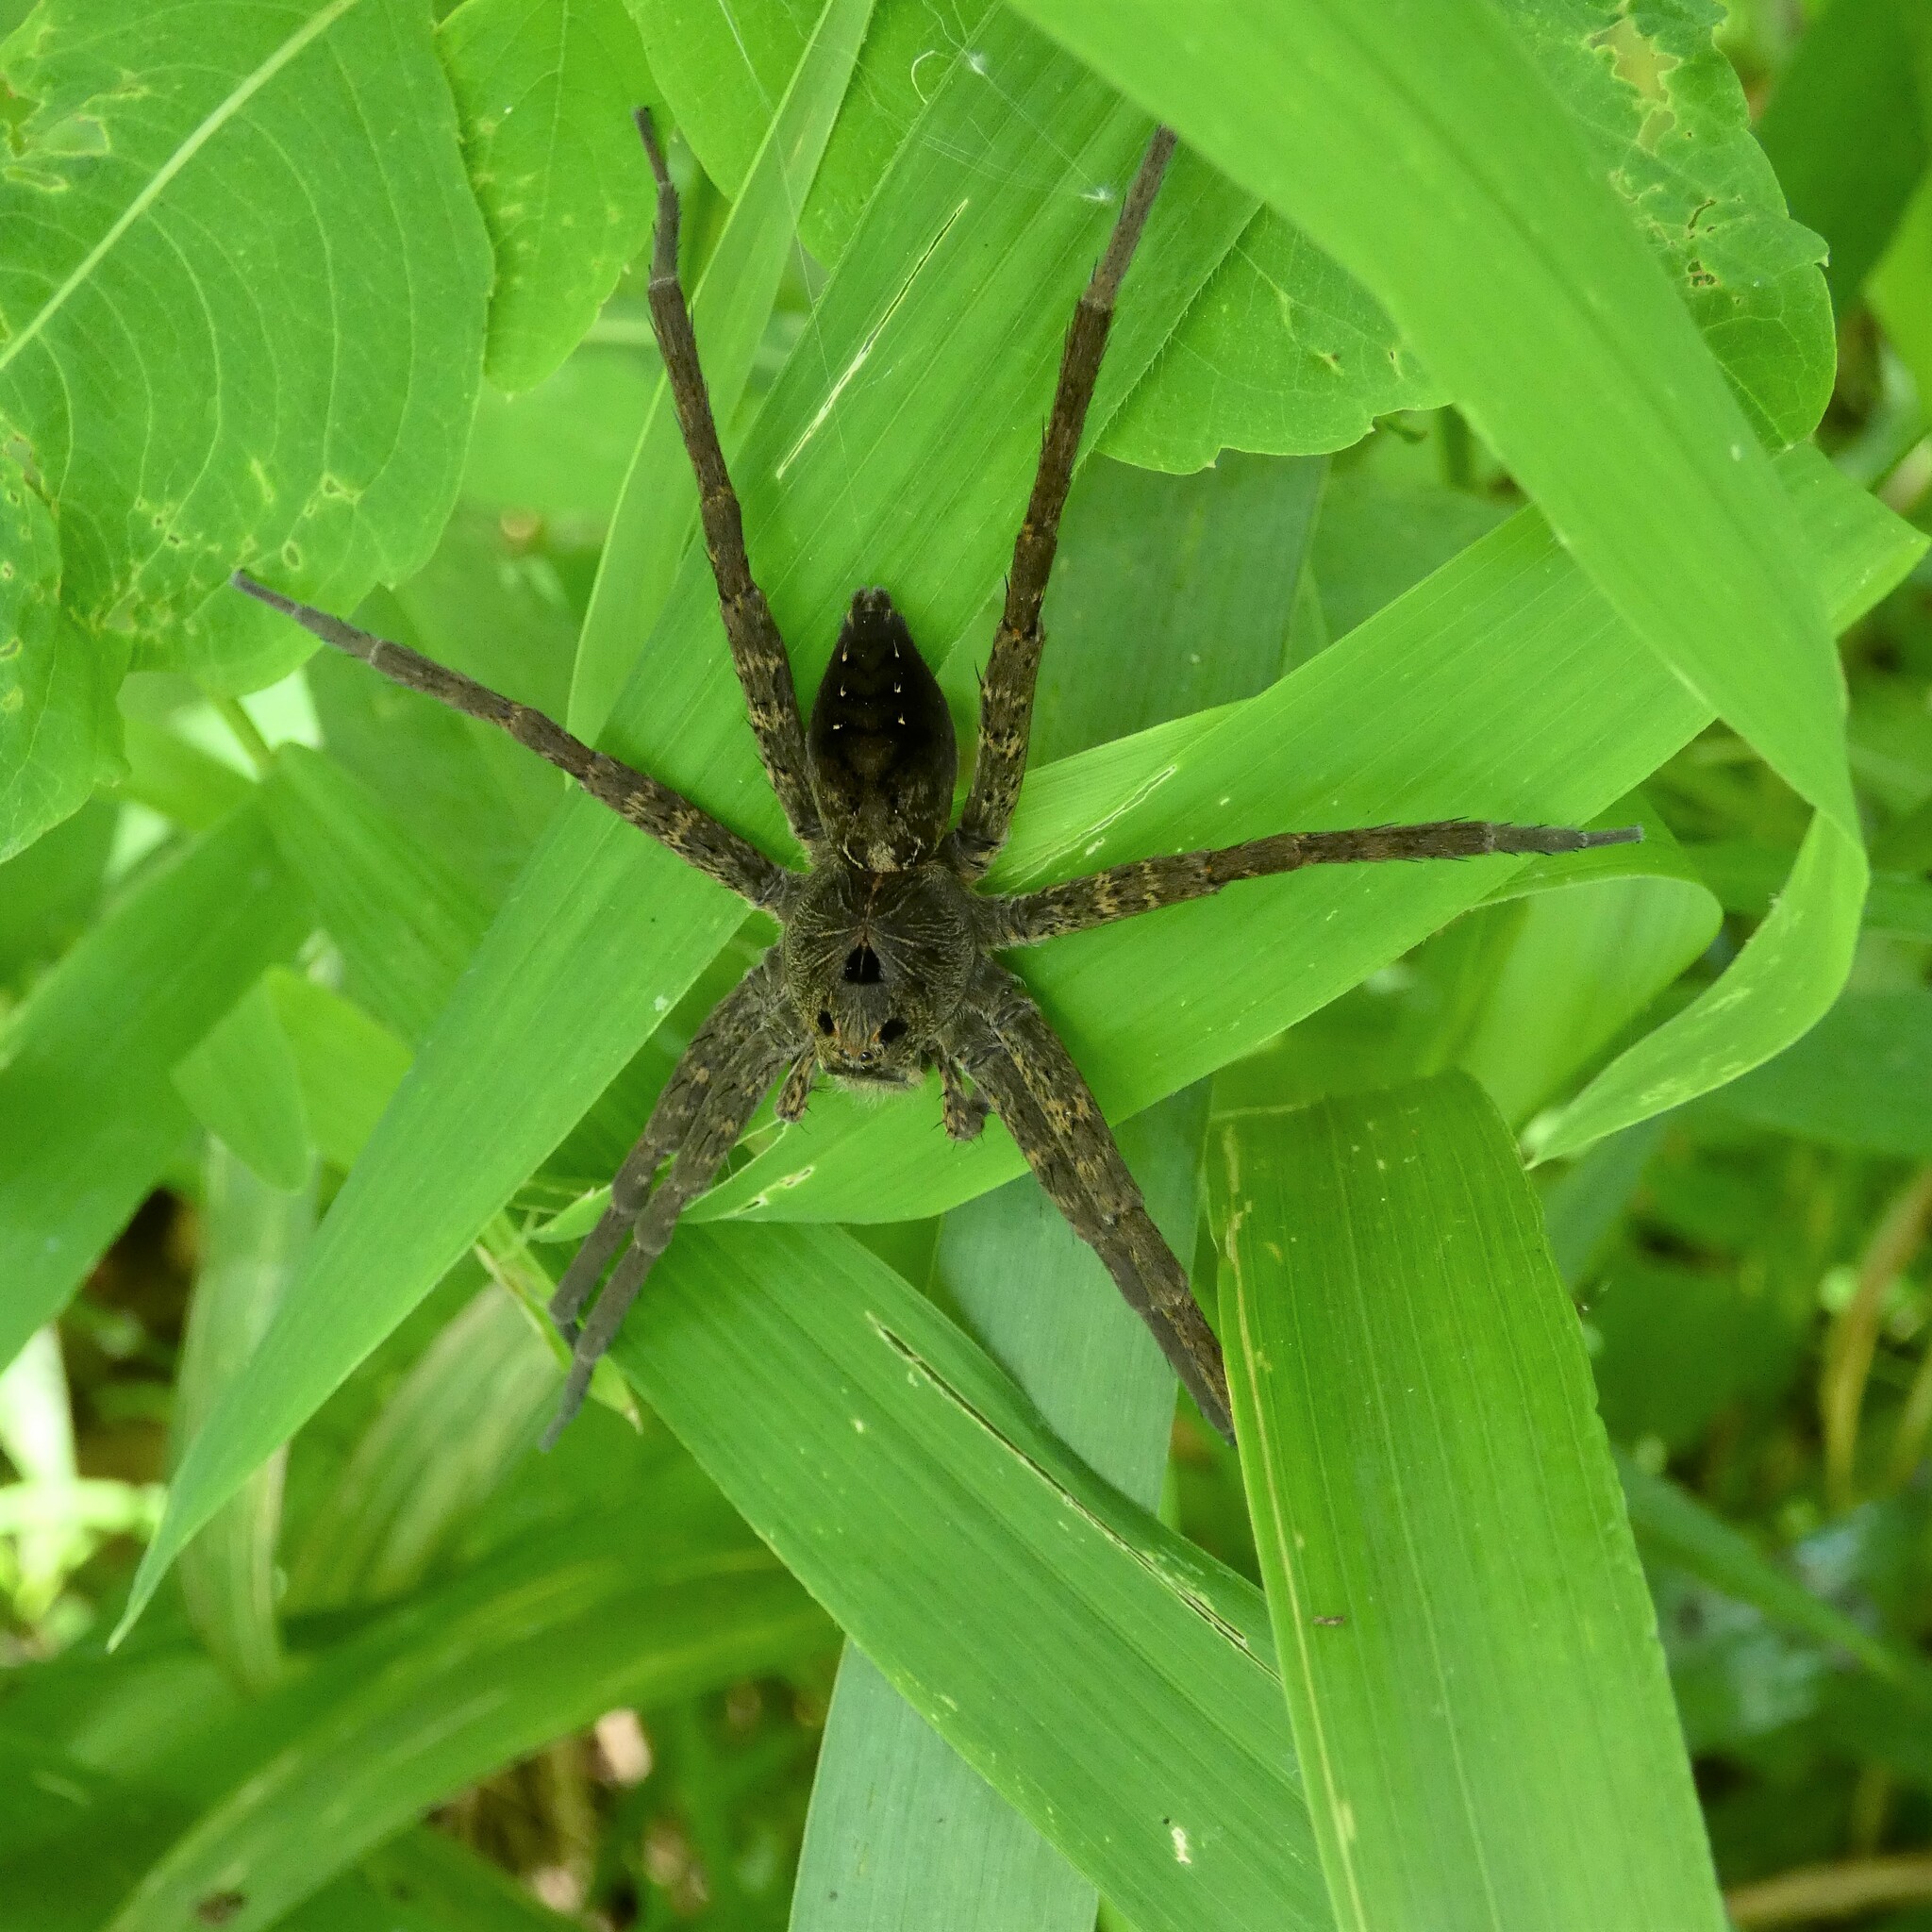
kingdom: Animalia
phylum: Arthropoda
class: Arachnida
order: Araneae
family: Pisauridae
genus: Dolomedes
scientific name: Dolomedes vittatus
